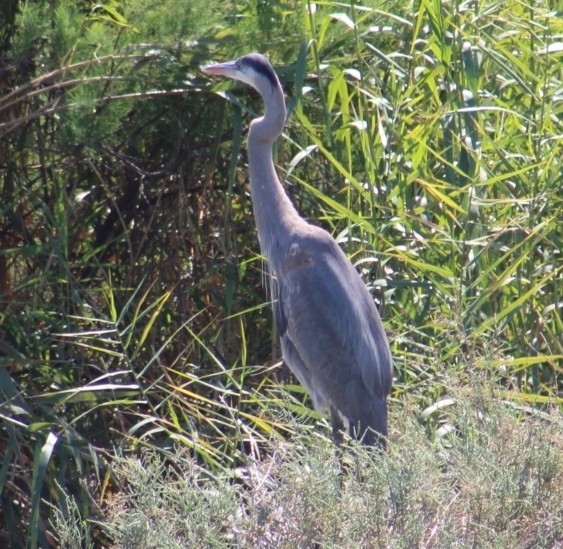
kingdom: Animalia
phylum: Chordata
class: Aves
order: Pelecaniformes
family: Ardeidae
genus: Ardea
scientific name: Ardea herodias
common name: Great blue heron
